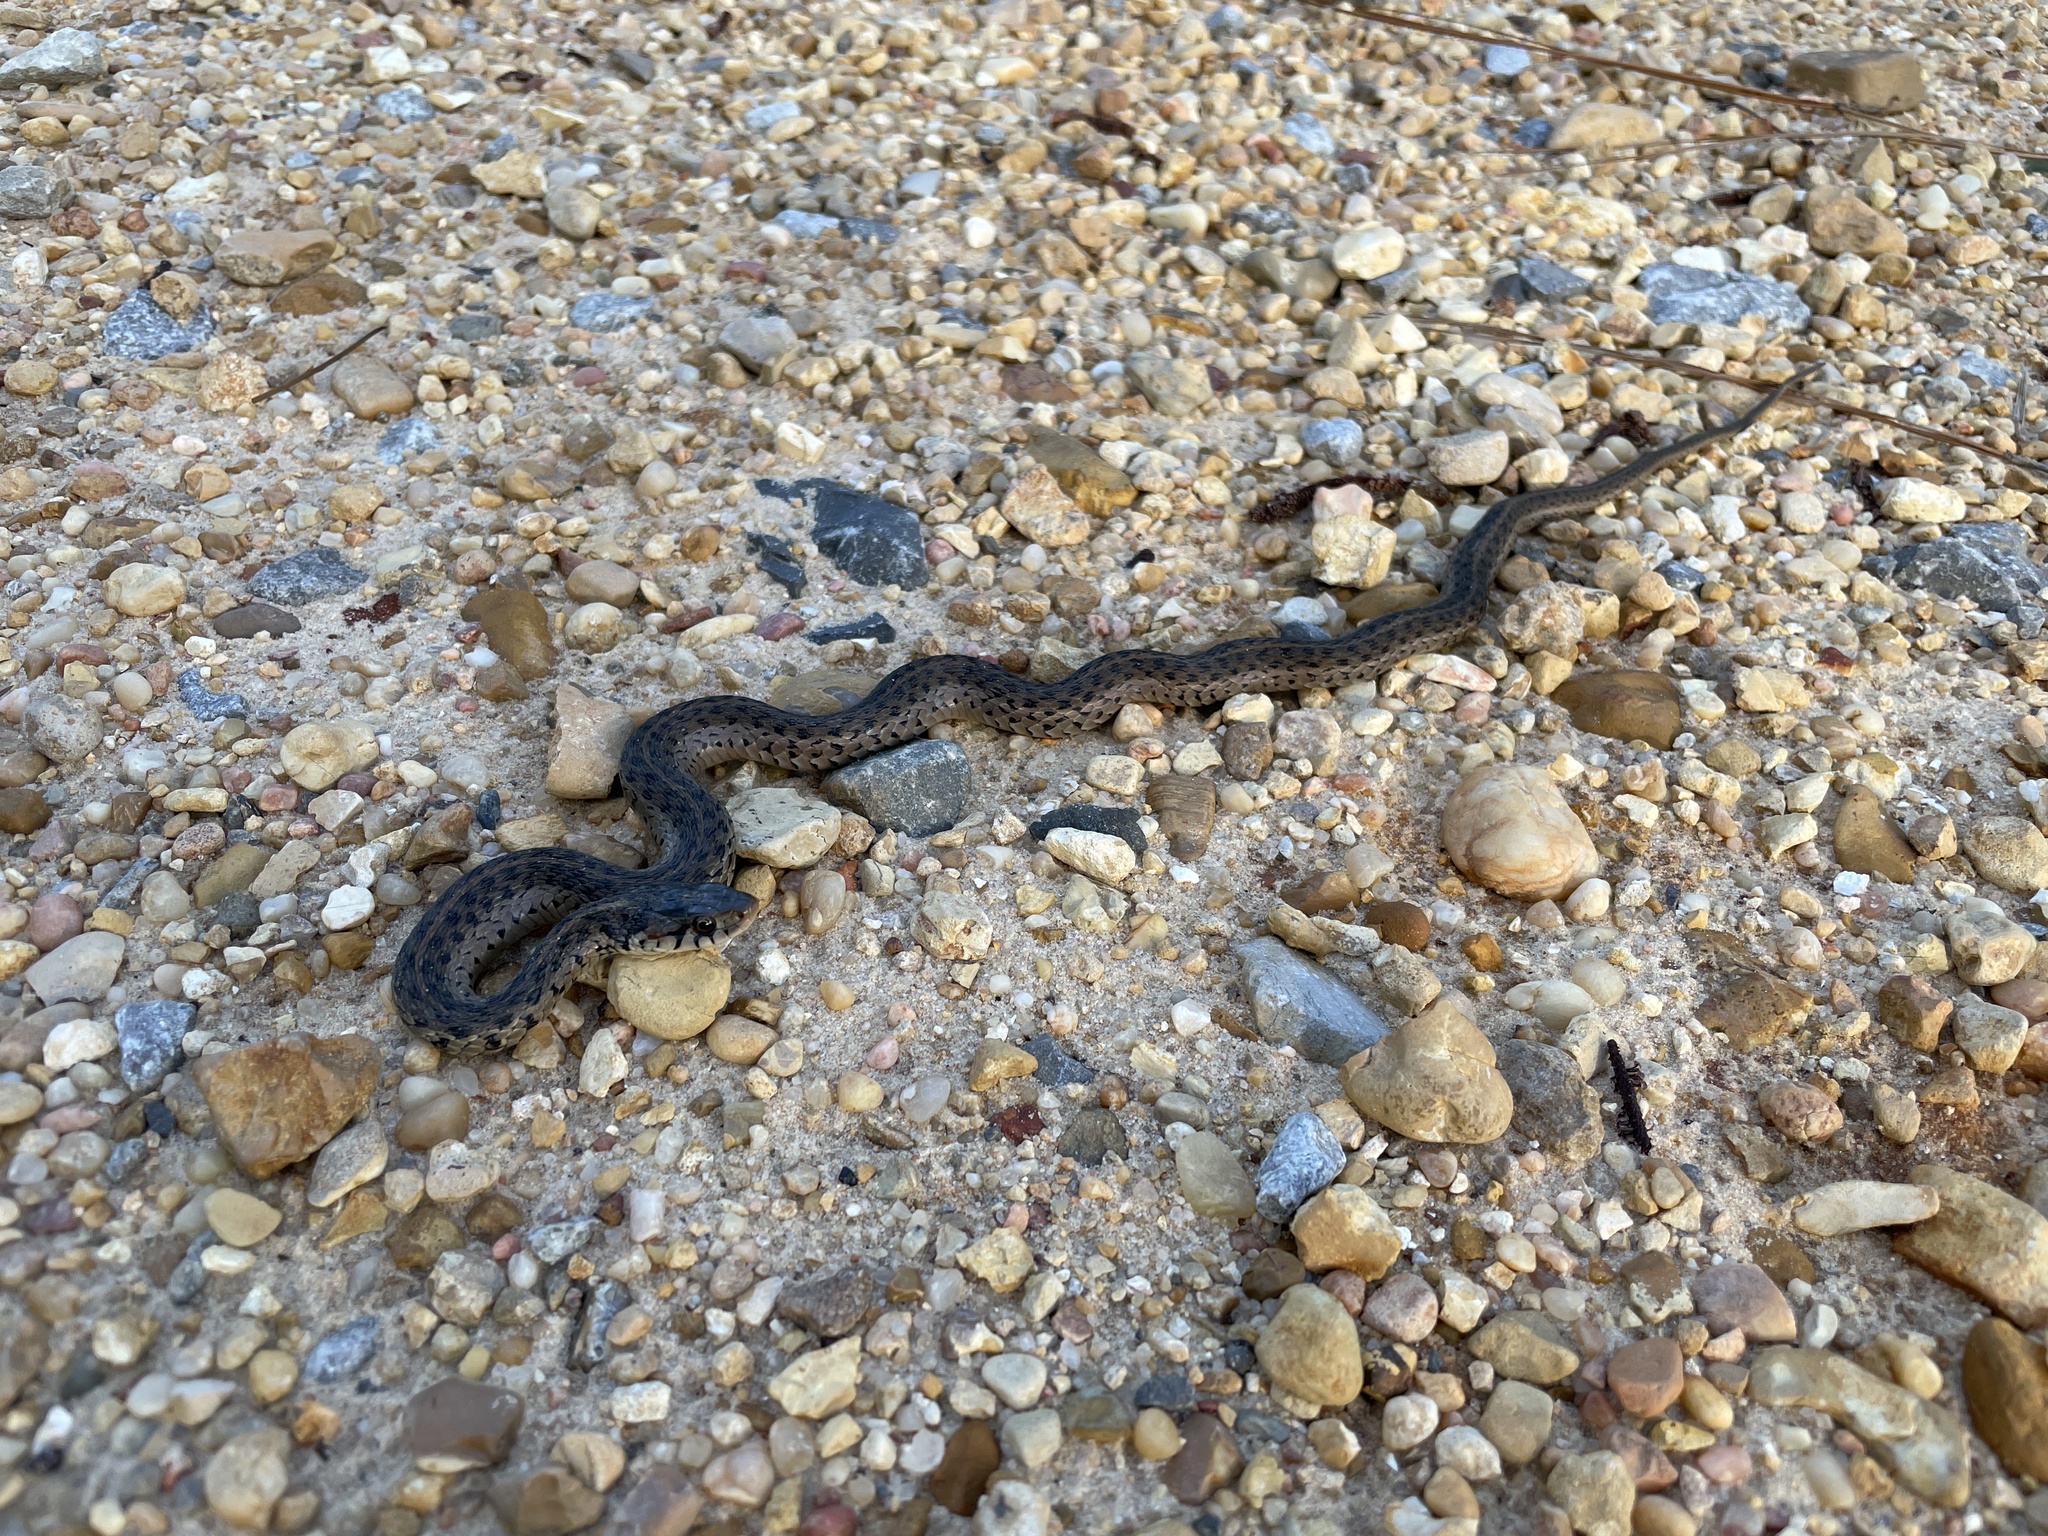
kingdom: Animalia
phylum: Chordata
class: Squamata
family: Colubridae
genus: Thamnophis
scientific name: Thamnophis sirtalis
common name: Common garter snake
